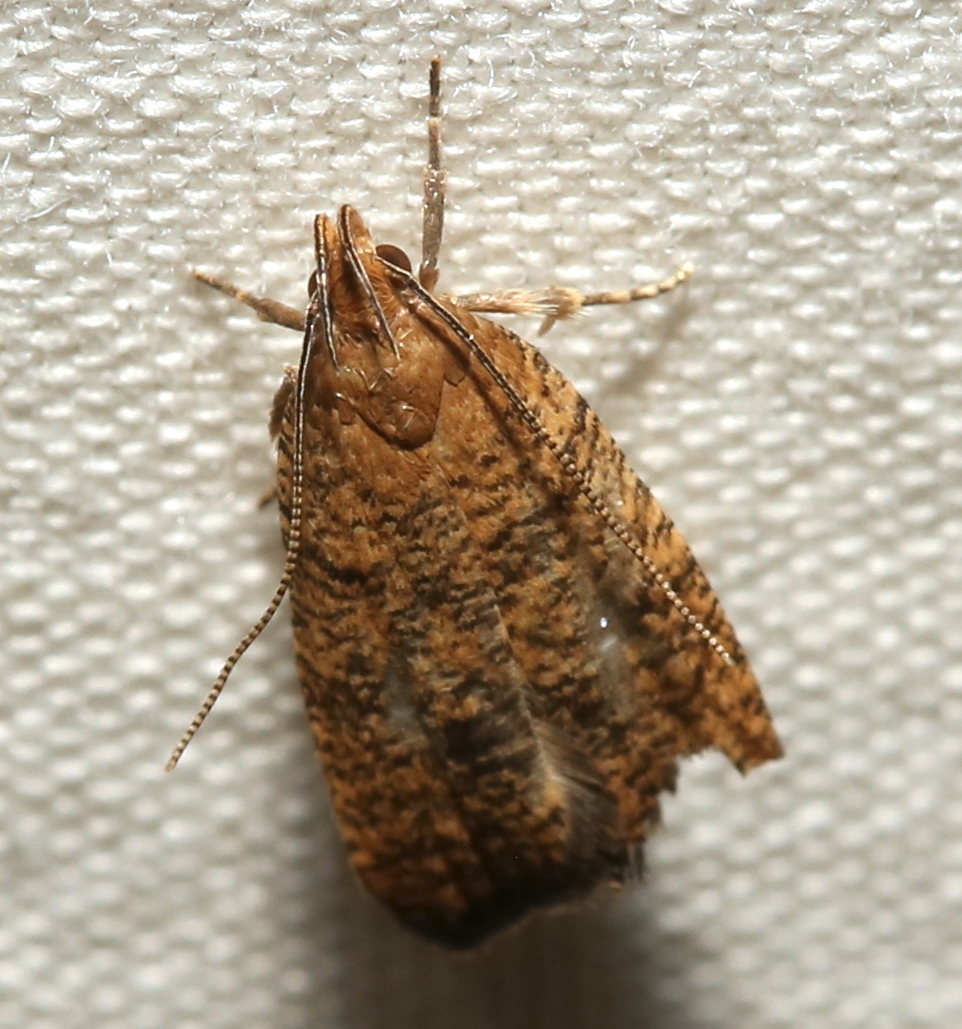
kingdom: Animalia
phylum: Arthropoda
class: Insecta
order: Lepidoptera
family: Depressariidae
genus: Psilocorsis
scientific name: Psilocorsis reflexella
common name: Dotted leaftier moth
